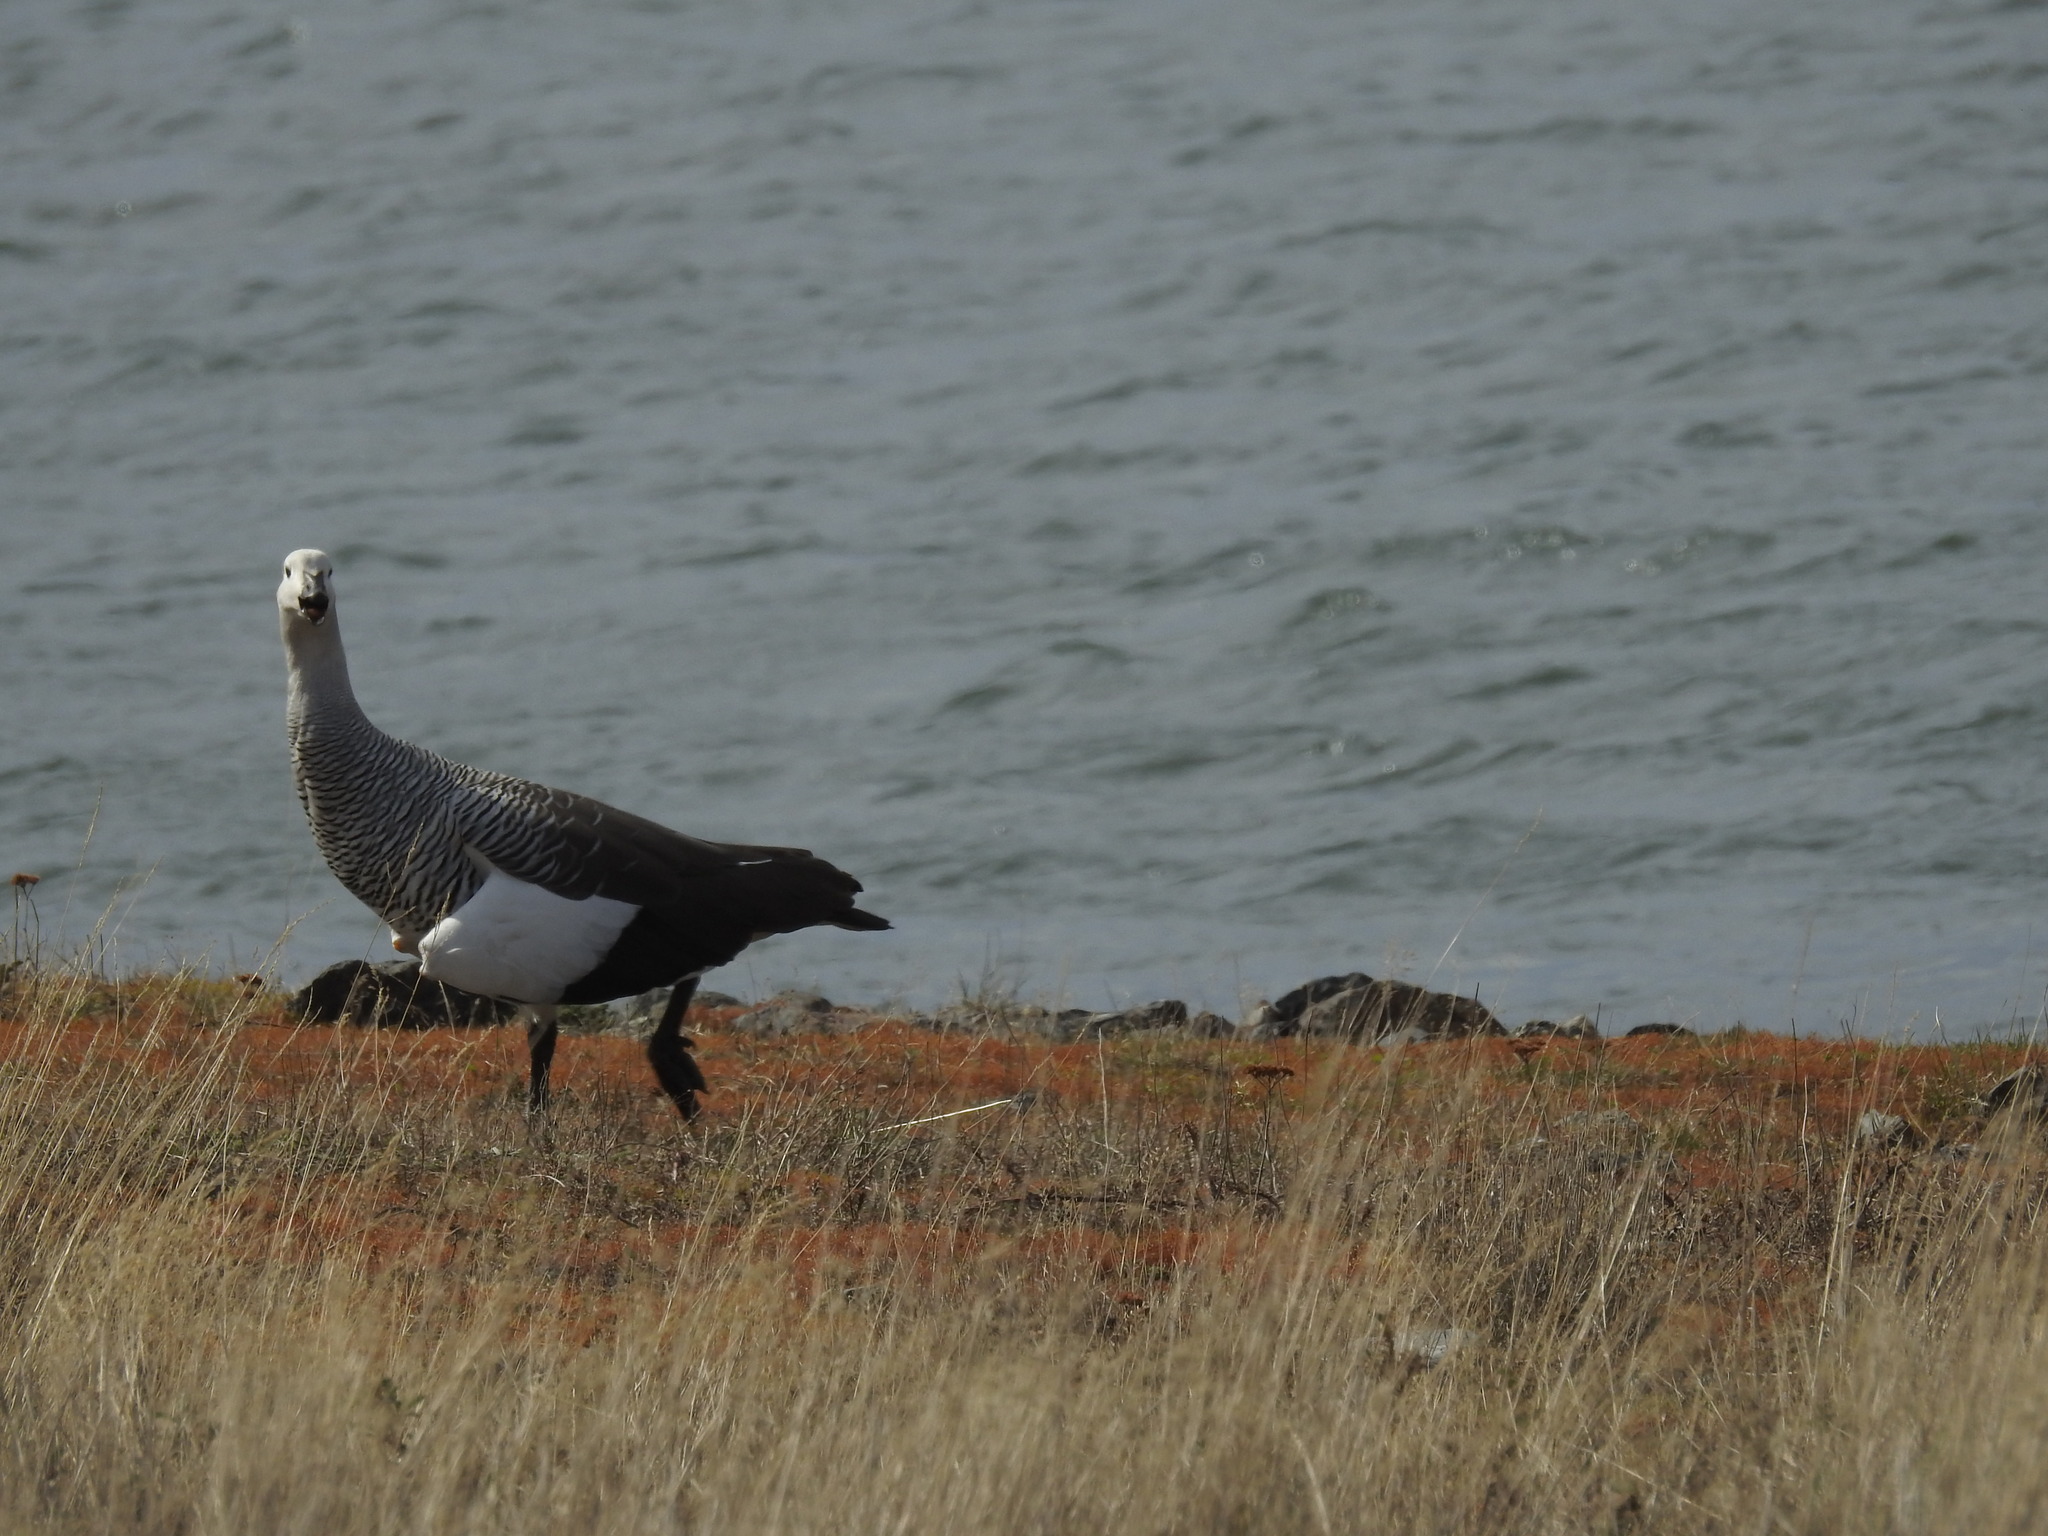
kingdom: Animalia
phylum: Chordata
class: Aves
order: Anseriformes
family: Anatidae
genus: Chloephaga
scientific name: Chloephaga picta
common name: Upland goose
